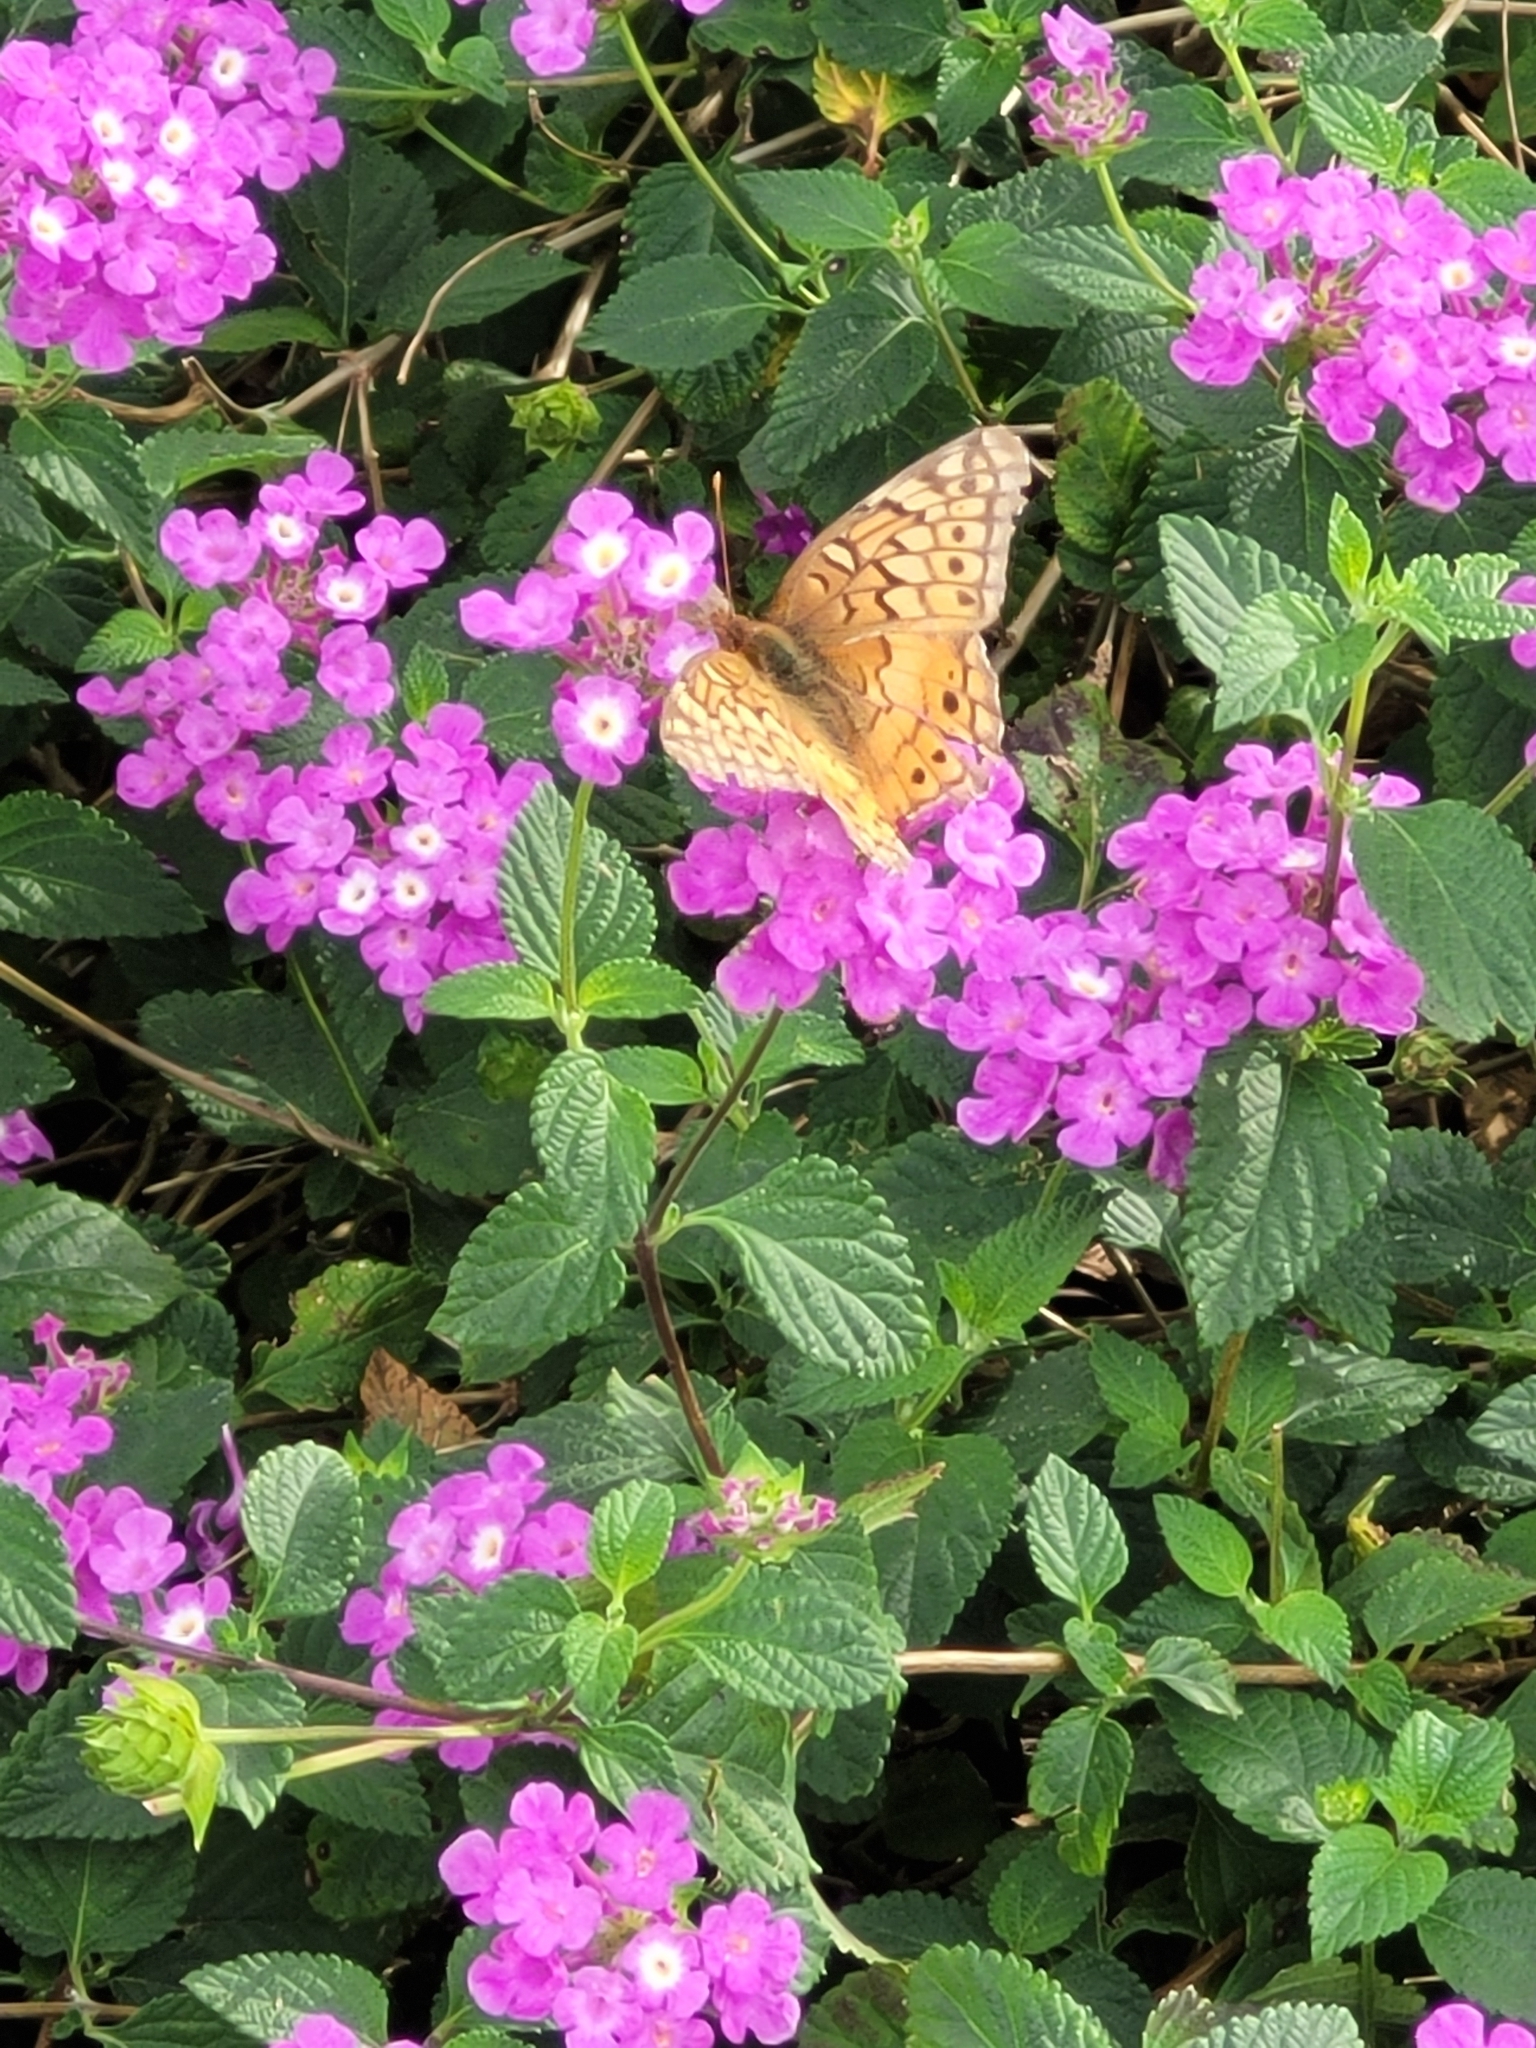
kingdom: Animalia
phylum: Arthropoda
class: Insecta
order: Lepidoptera
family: Nymphalidae
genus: Euptoieta
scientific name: Euptoieta claudia
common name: Variegated fritillary
